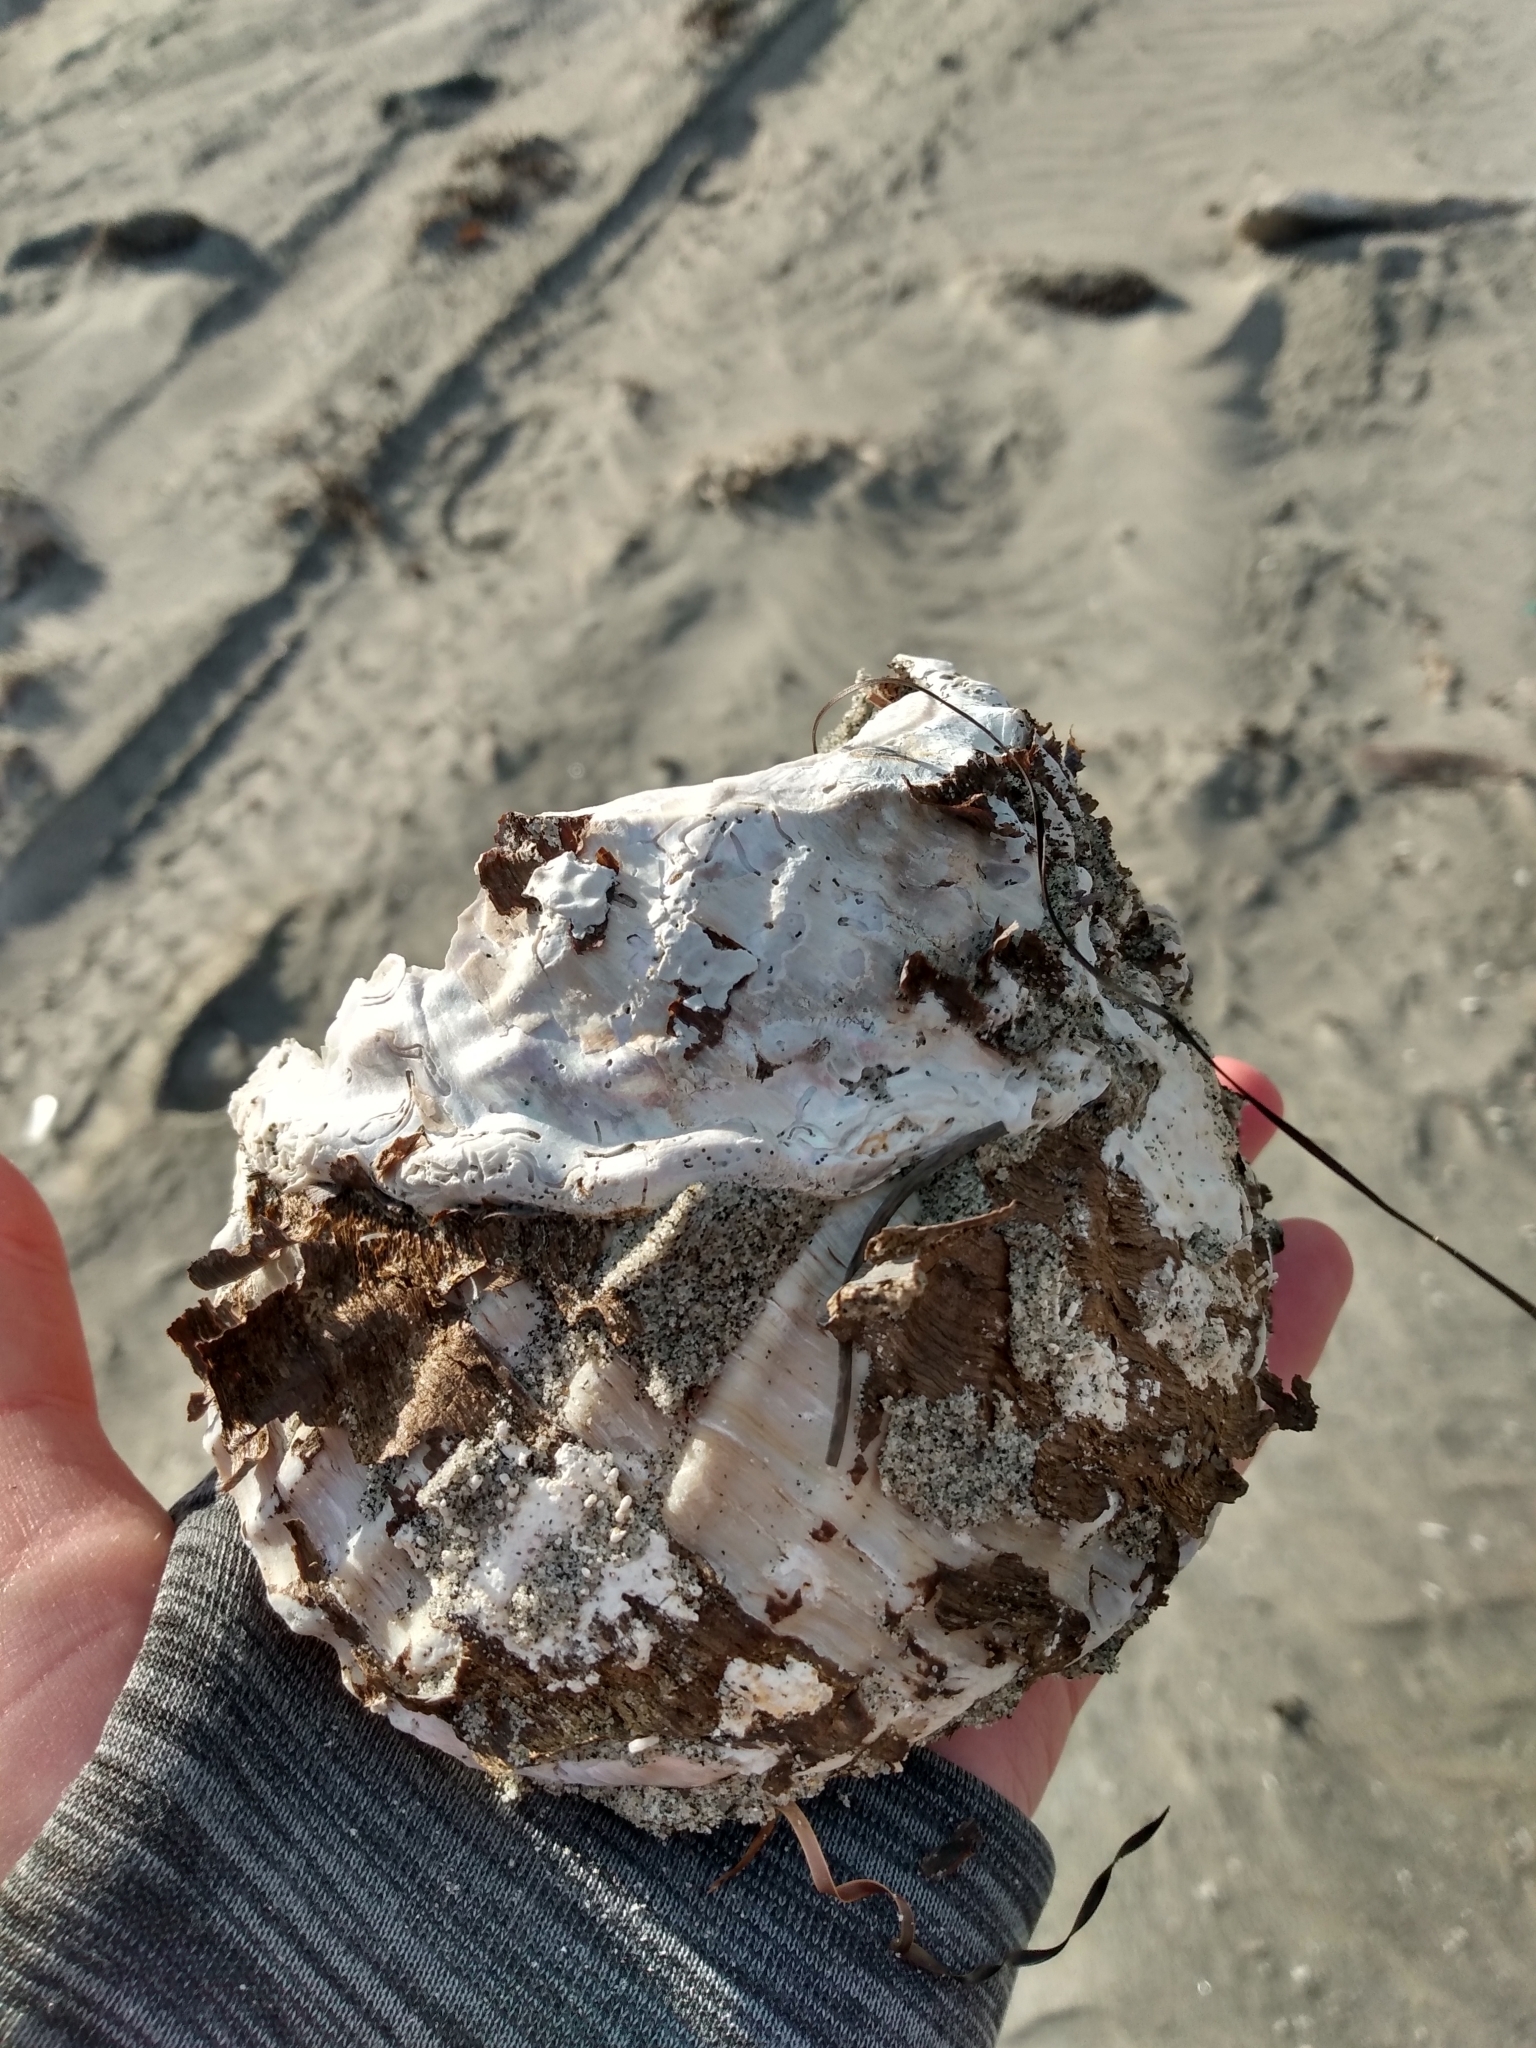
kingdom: Animalia
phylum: Mollusca
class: Gastropoda
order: Trochida
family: Turbinidae
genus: Megastraea
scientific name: Megastraea undosa
